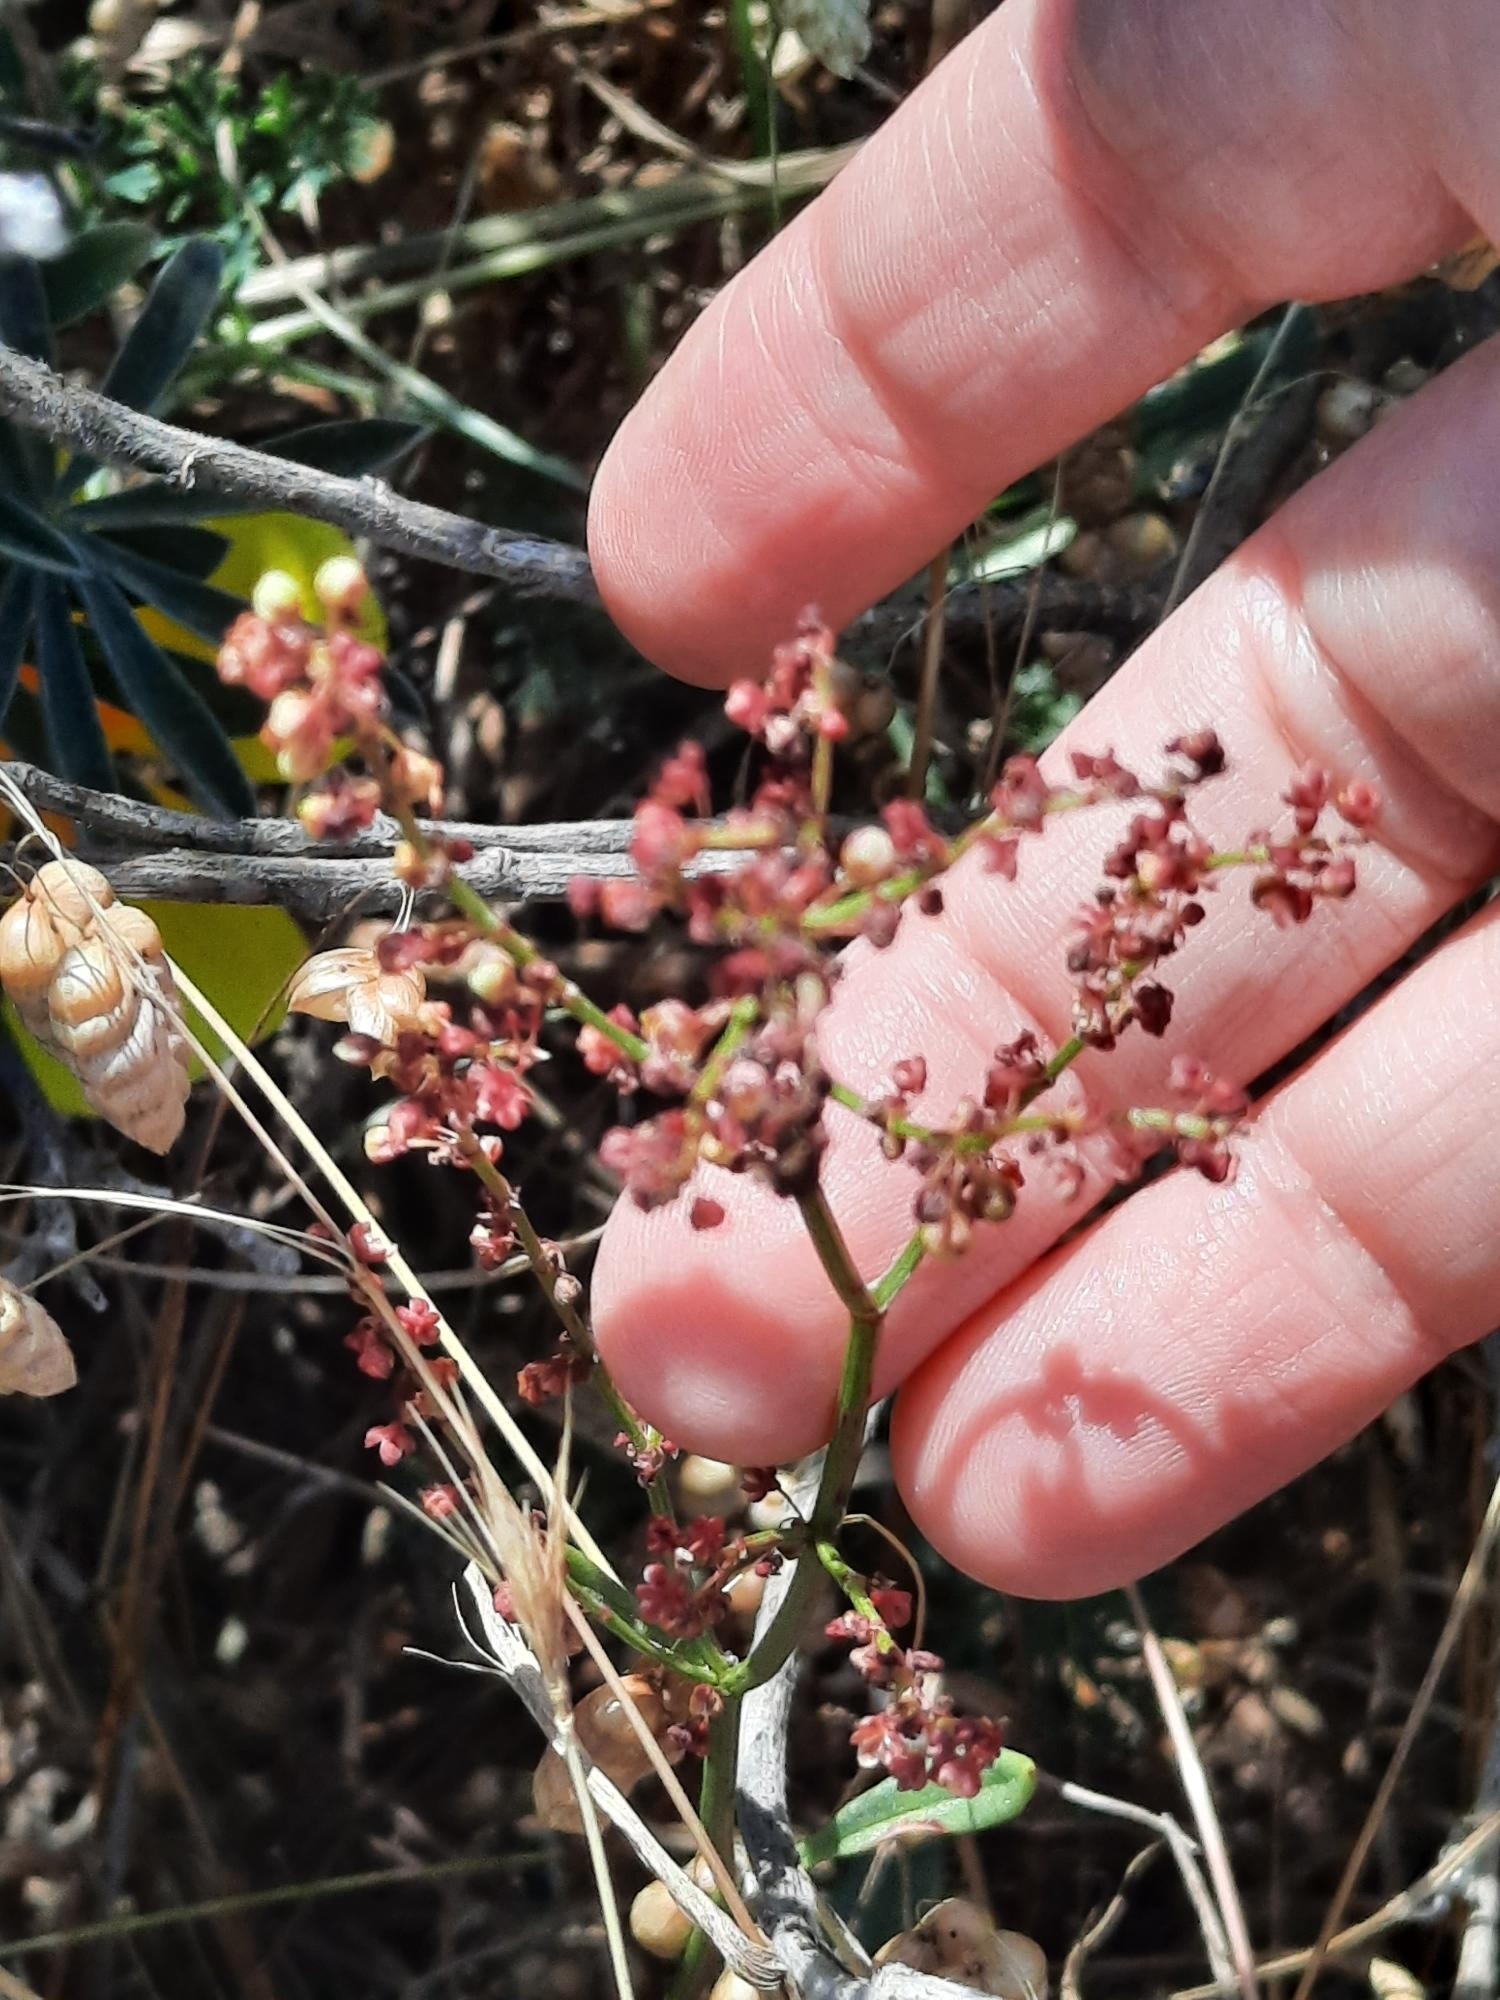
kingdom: Plantae
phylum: Tracheophyta
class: Magnoliopsida
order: Caryophyllales
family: Polygonaceae
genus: Rumex
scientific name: Rumex acetosella
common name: Common sheep sorrel
